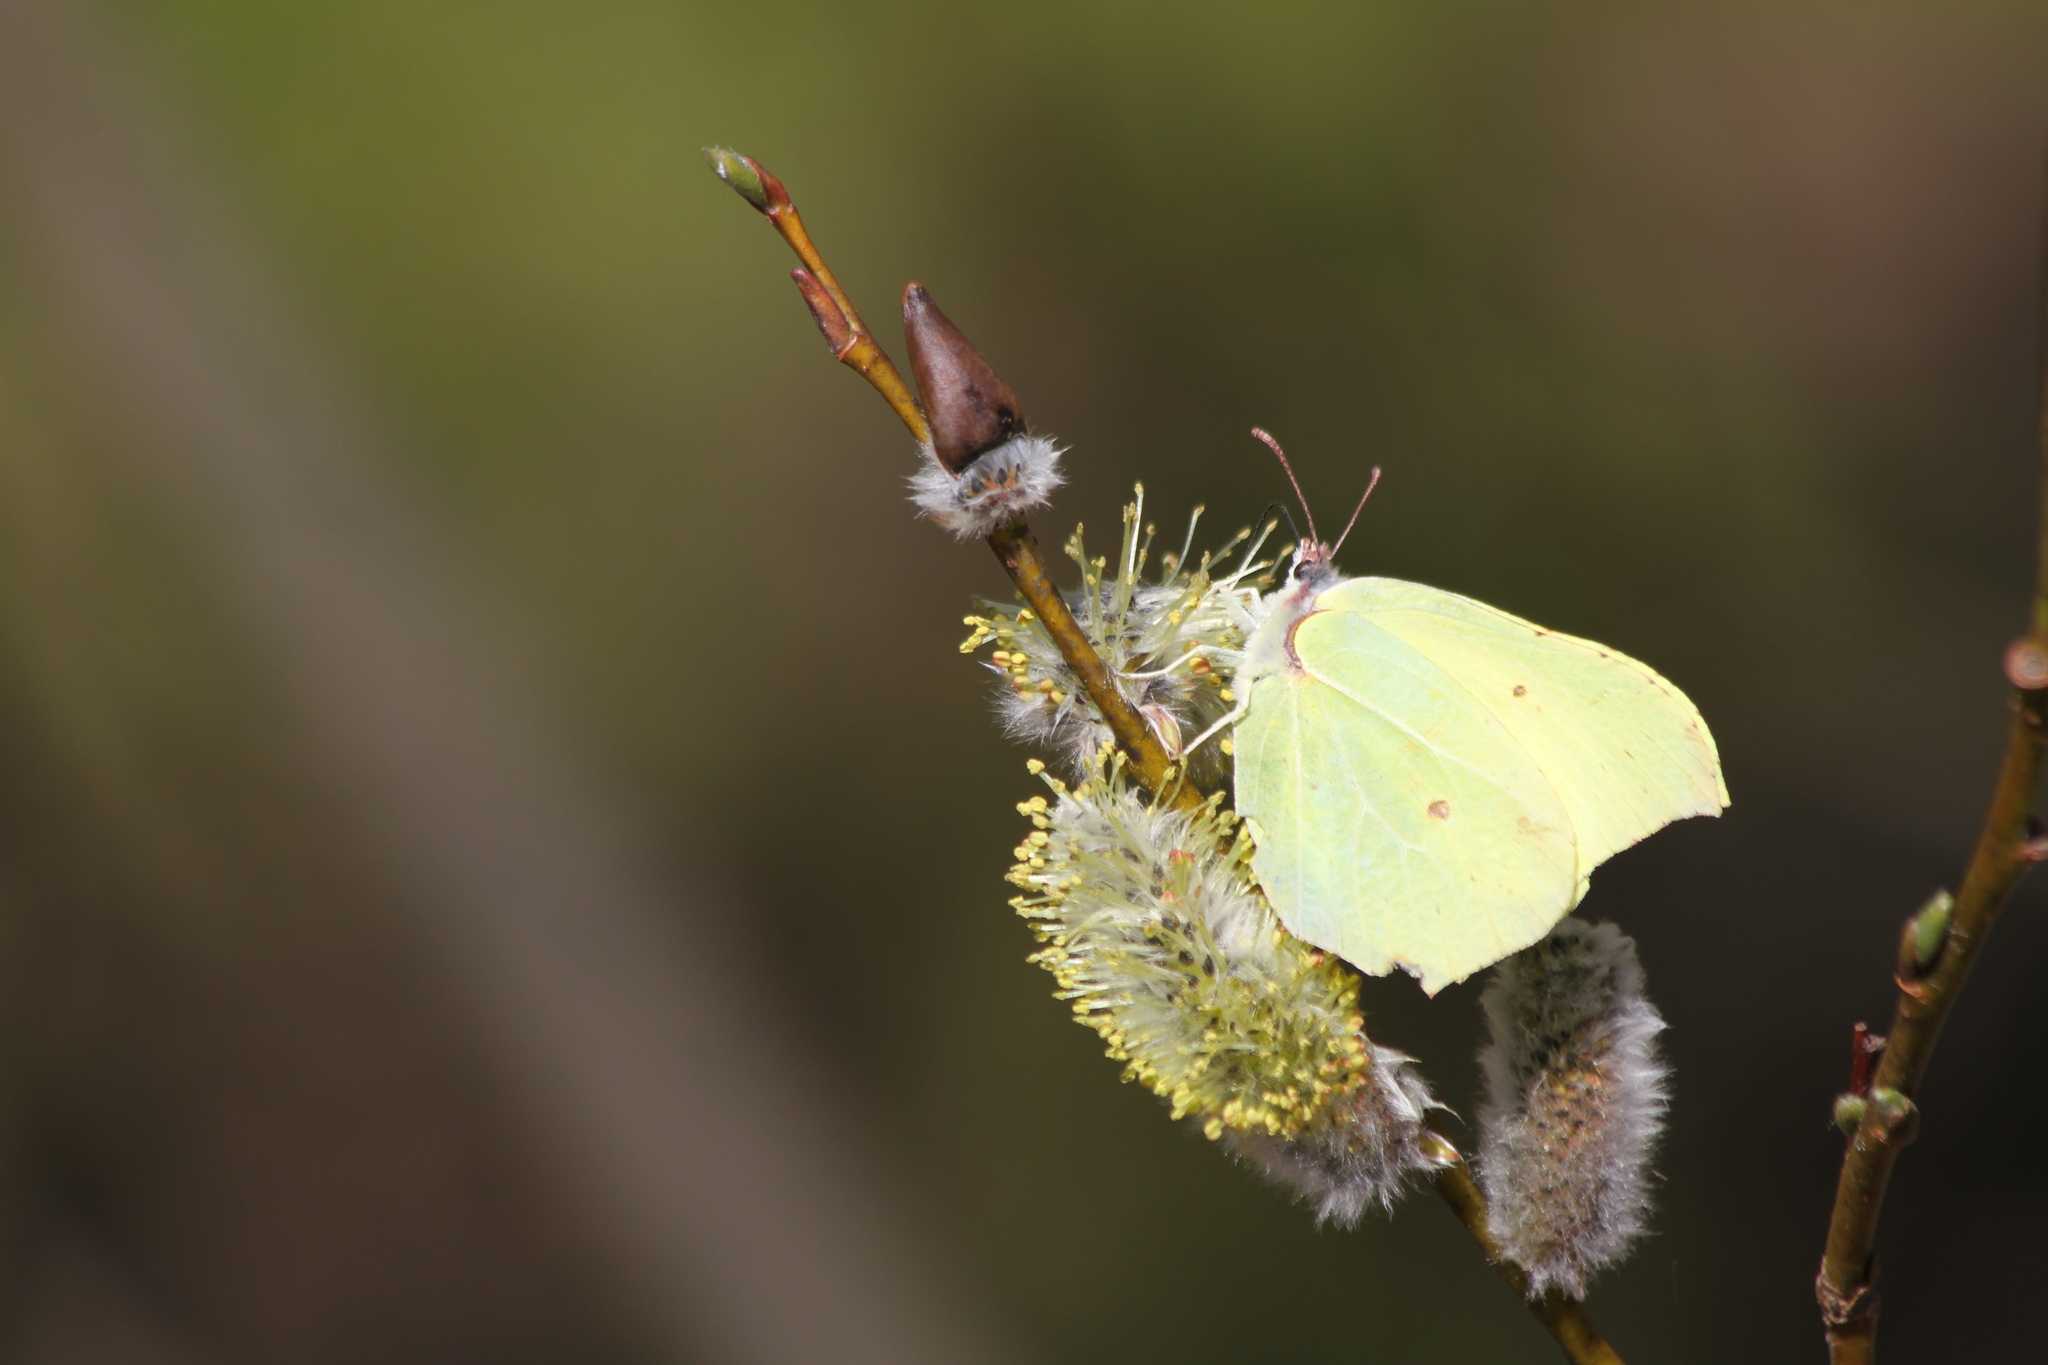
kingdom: Animalia
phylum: Arthropoda
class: Insecta
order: Lepidoptera
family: Pieridae
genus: Gonepteryx
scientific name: Gonepteryx rhamni
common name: Brimstone
